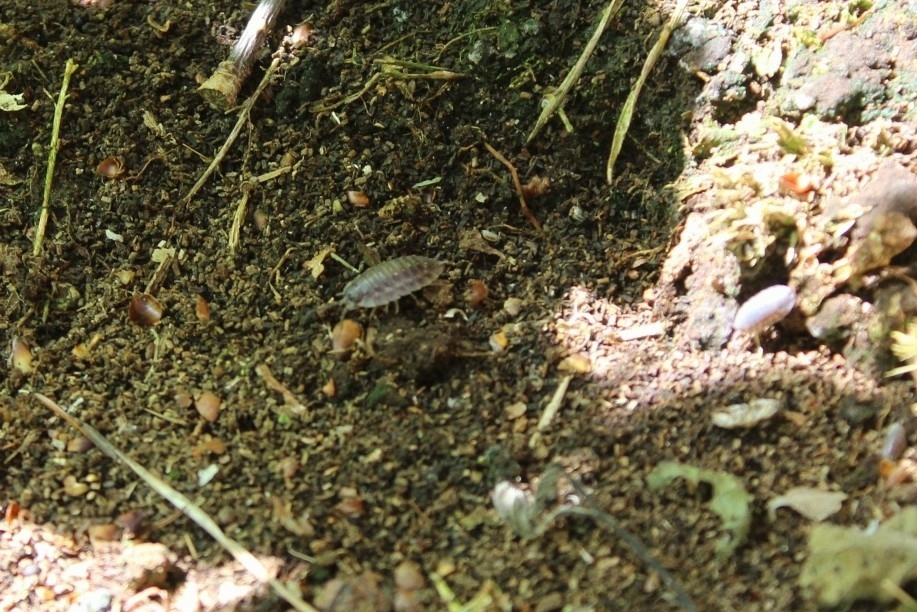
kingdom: Animalia
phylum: Arthropoda
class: Malacostraca
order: Isopoda
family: Oniscidae
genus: Oniscus
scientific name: Oniscus asellus
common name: Common shiny woodlouse
